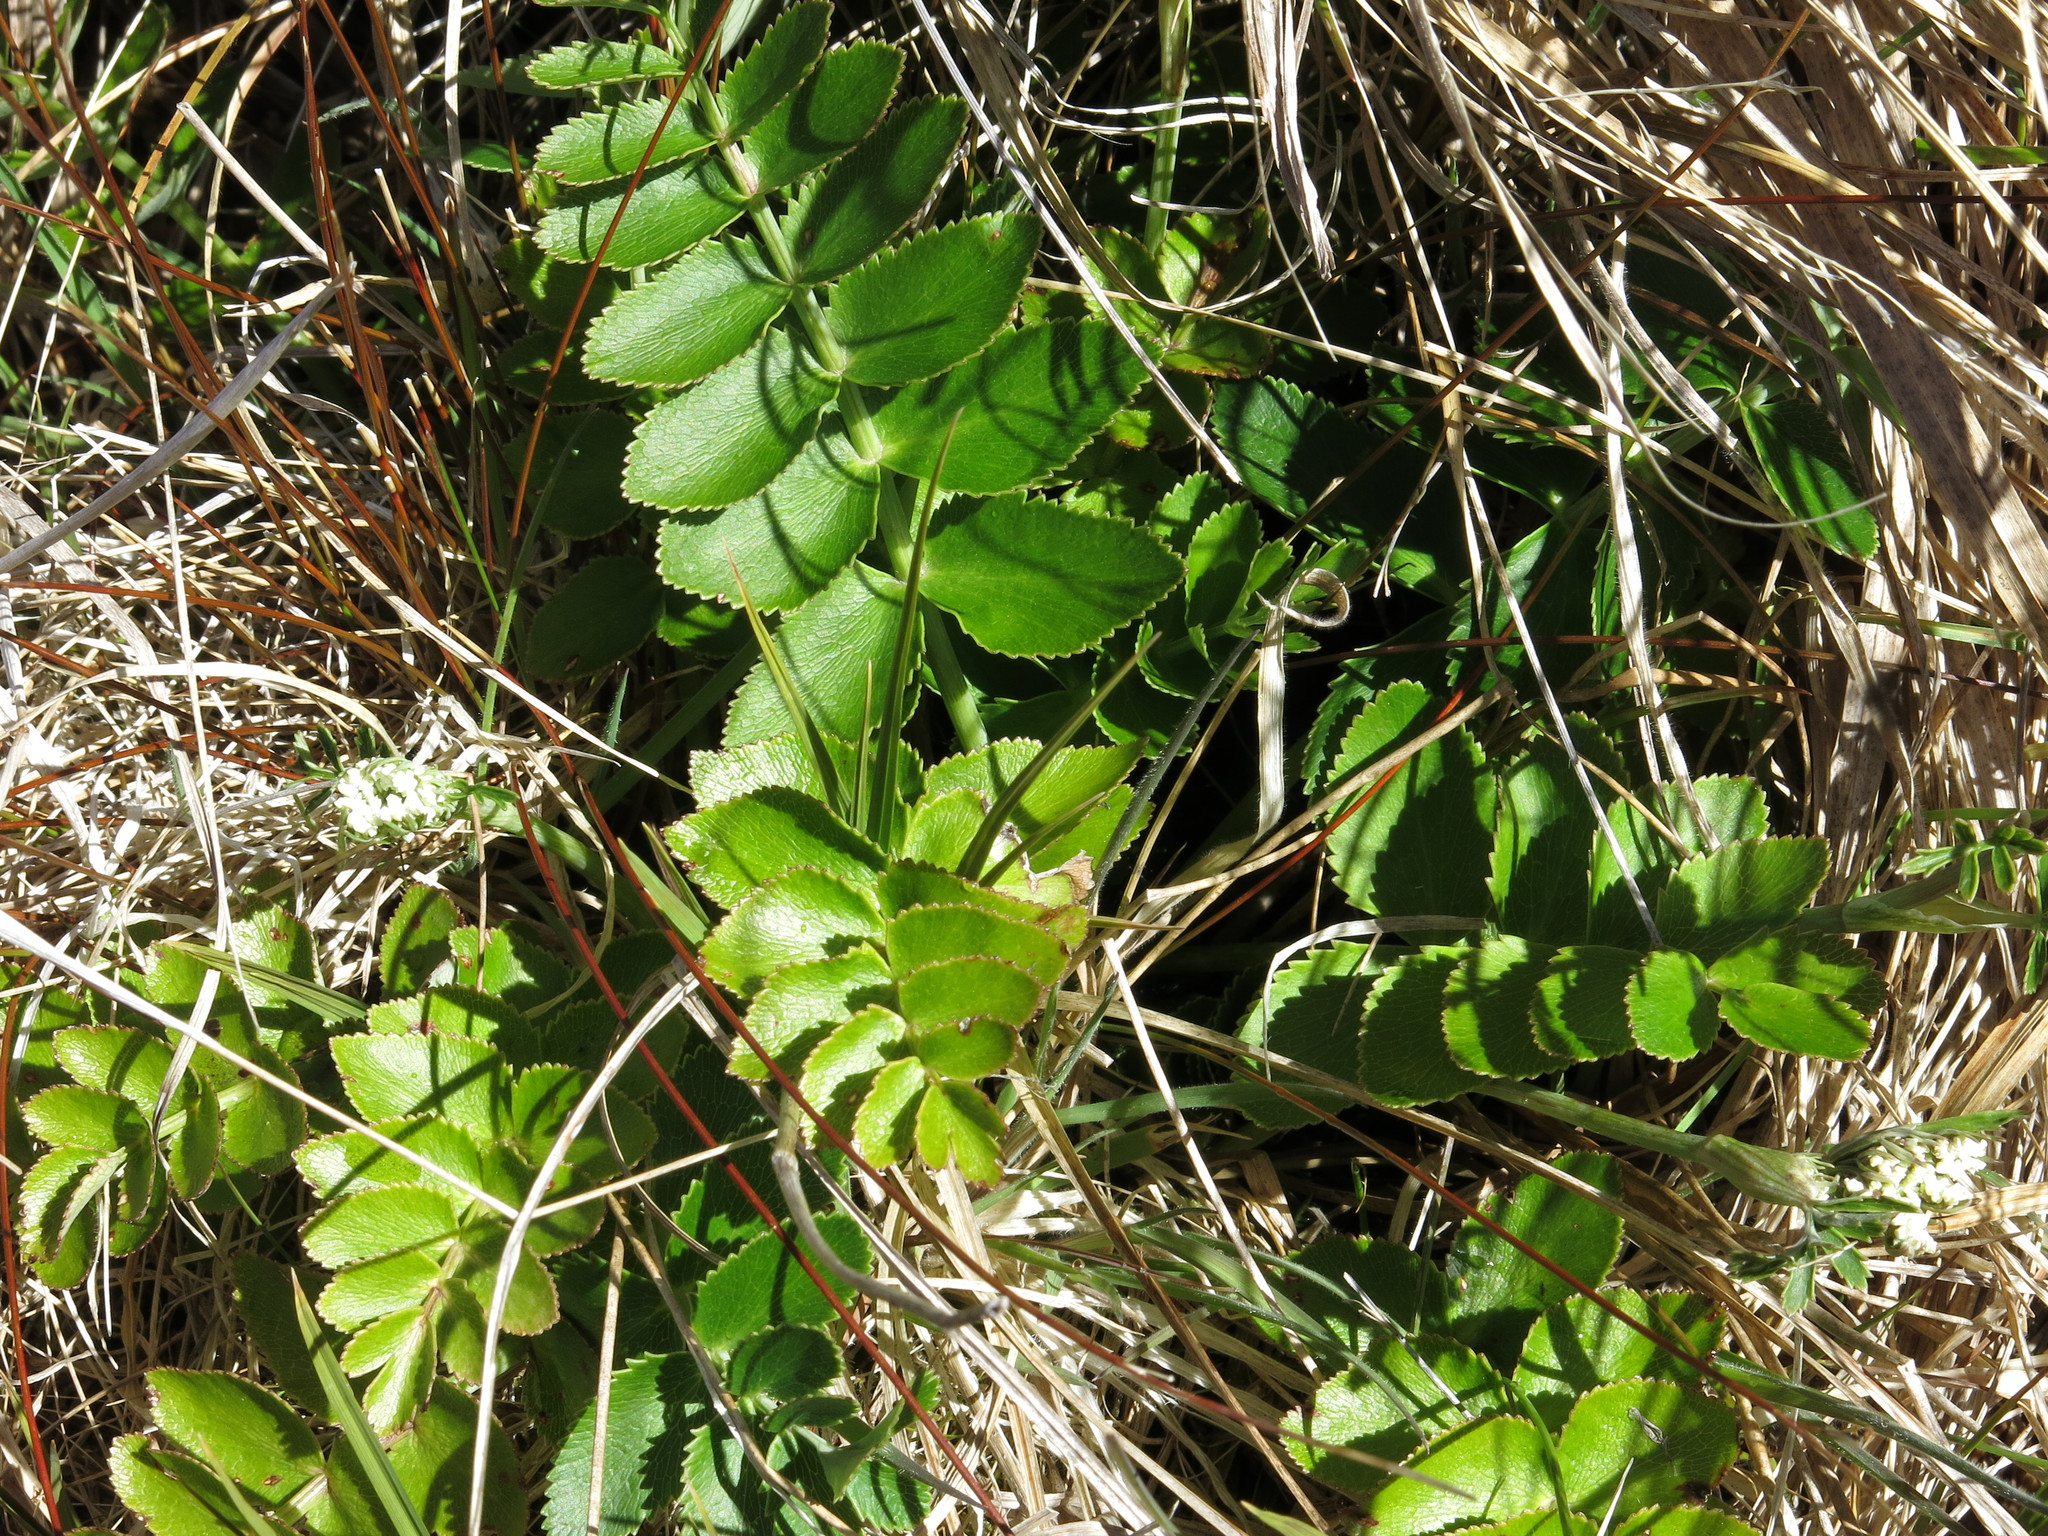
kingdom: Plantae
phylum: Tracheophyta
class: Magnoliopsida
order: Apiales
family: Apiaceae
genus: Gingidia
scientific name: Gingidia montana
